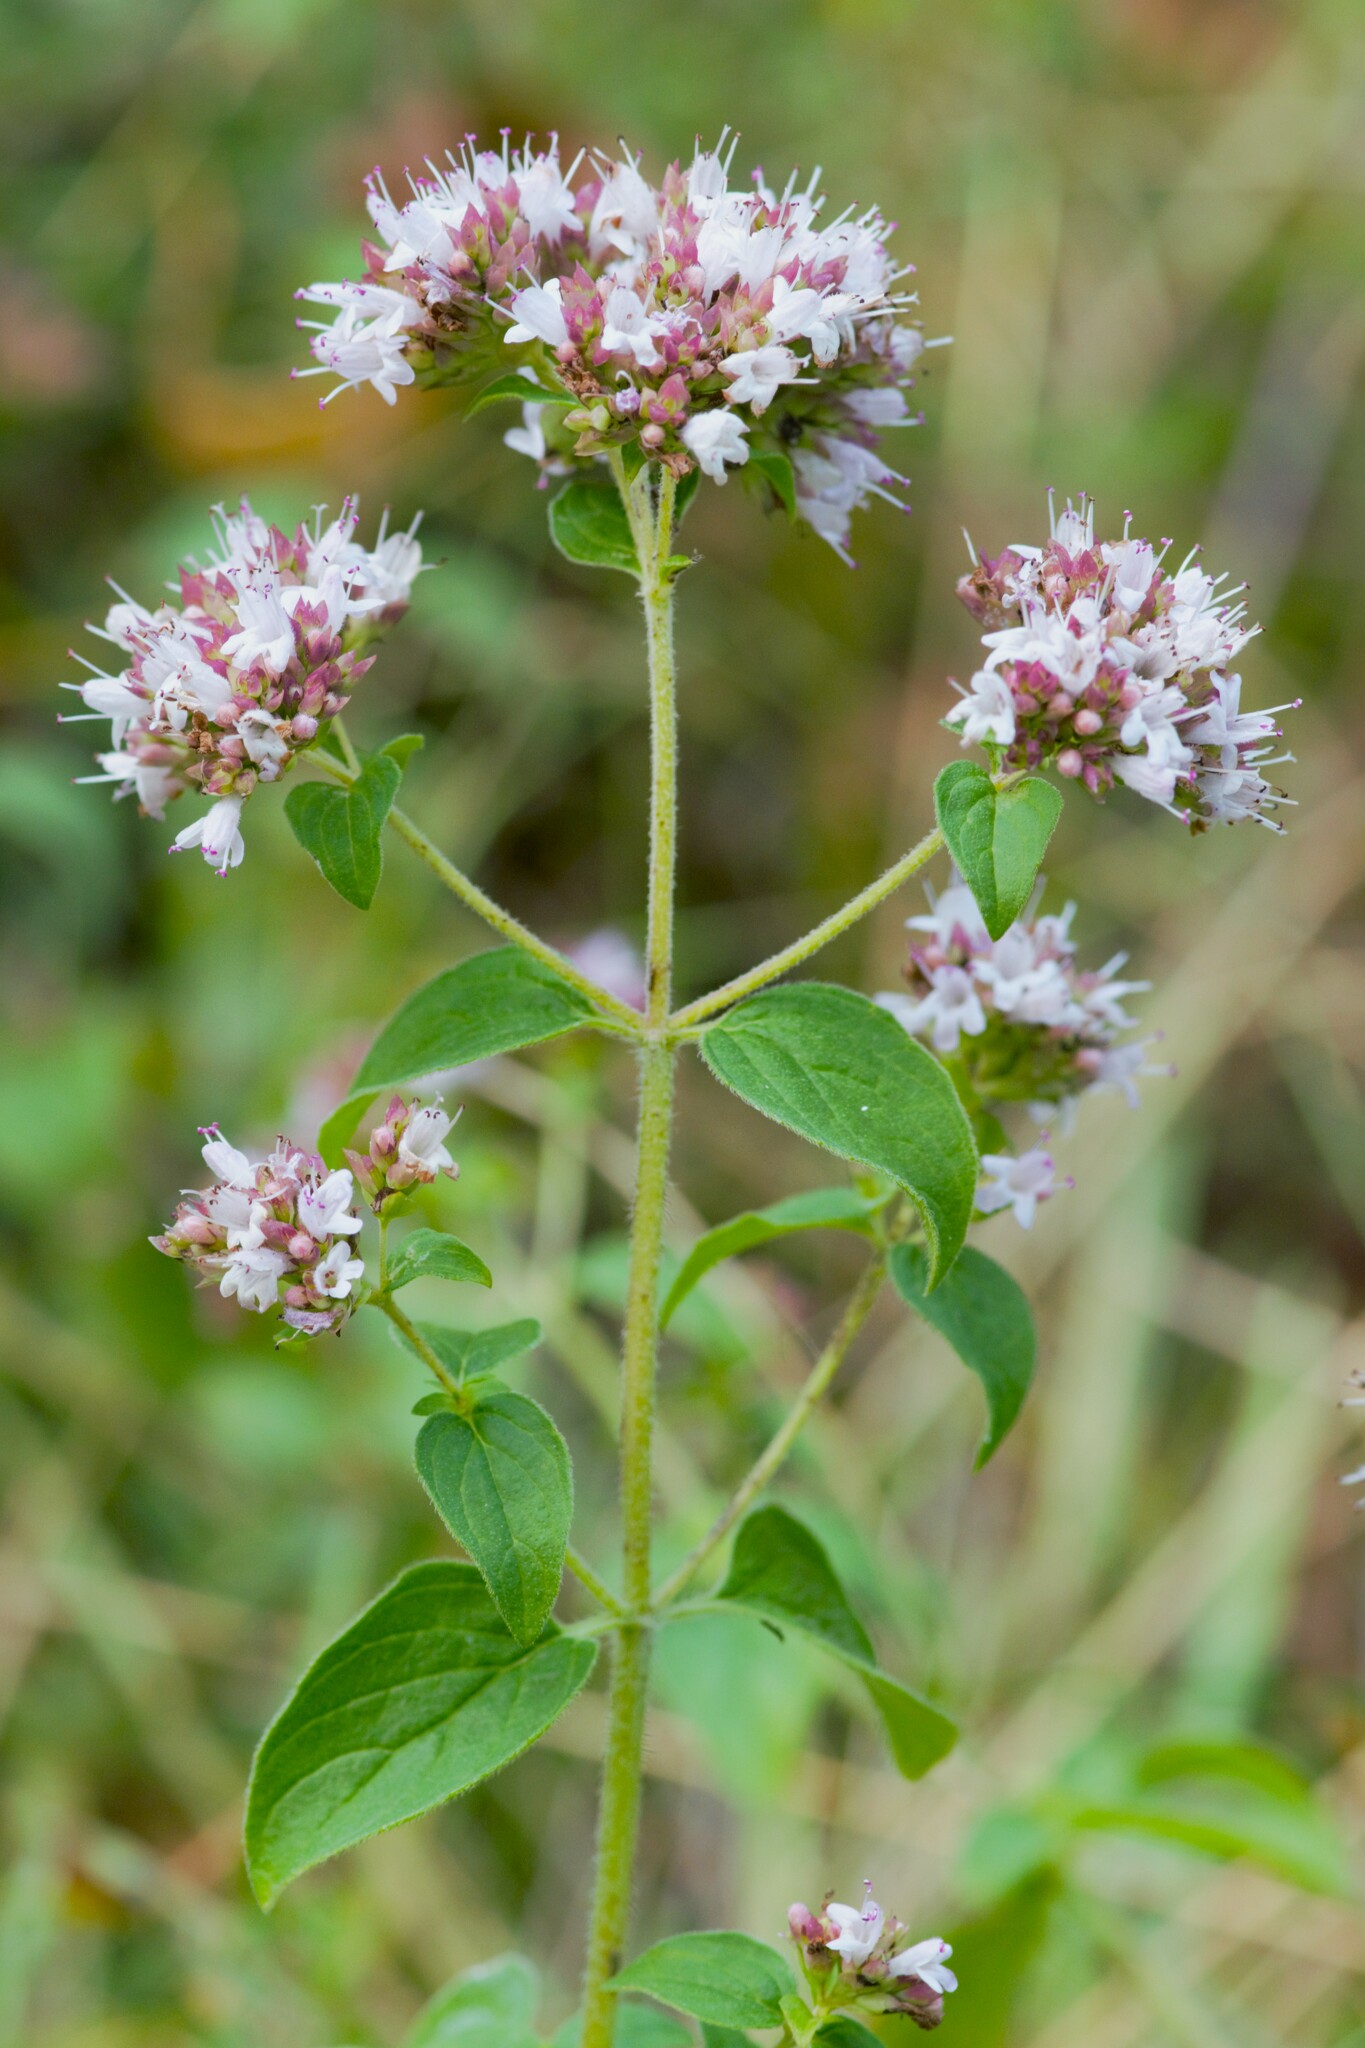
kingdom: Plantae
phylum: Tracheophyta
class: Magnoliopsida
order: Lamiales
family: Lamiaceae
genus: Origanum
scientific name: Origanum vulgare
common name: Wild marjoram
